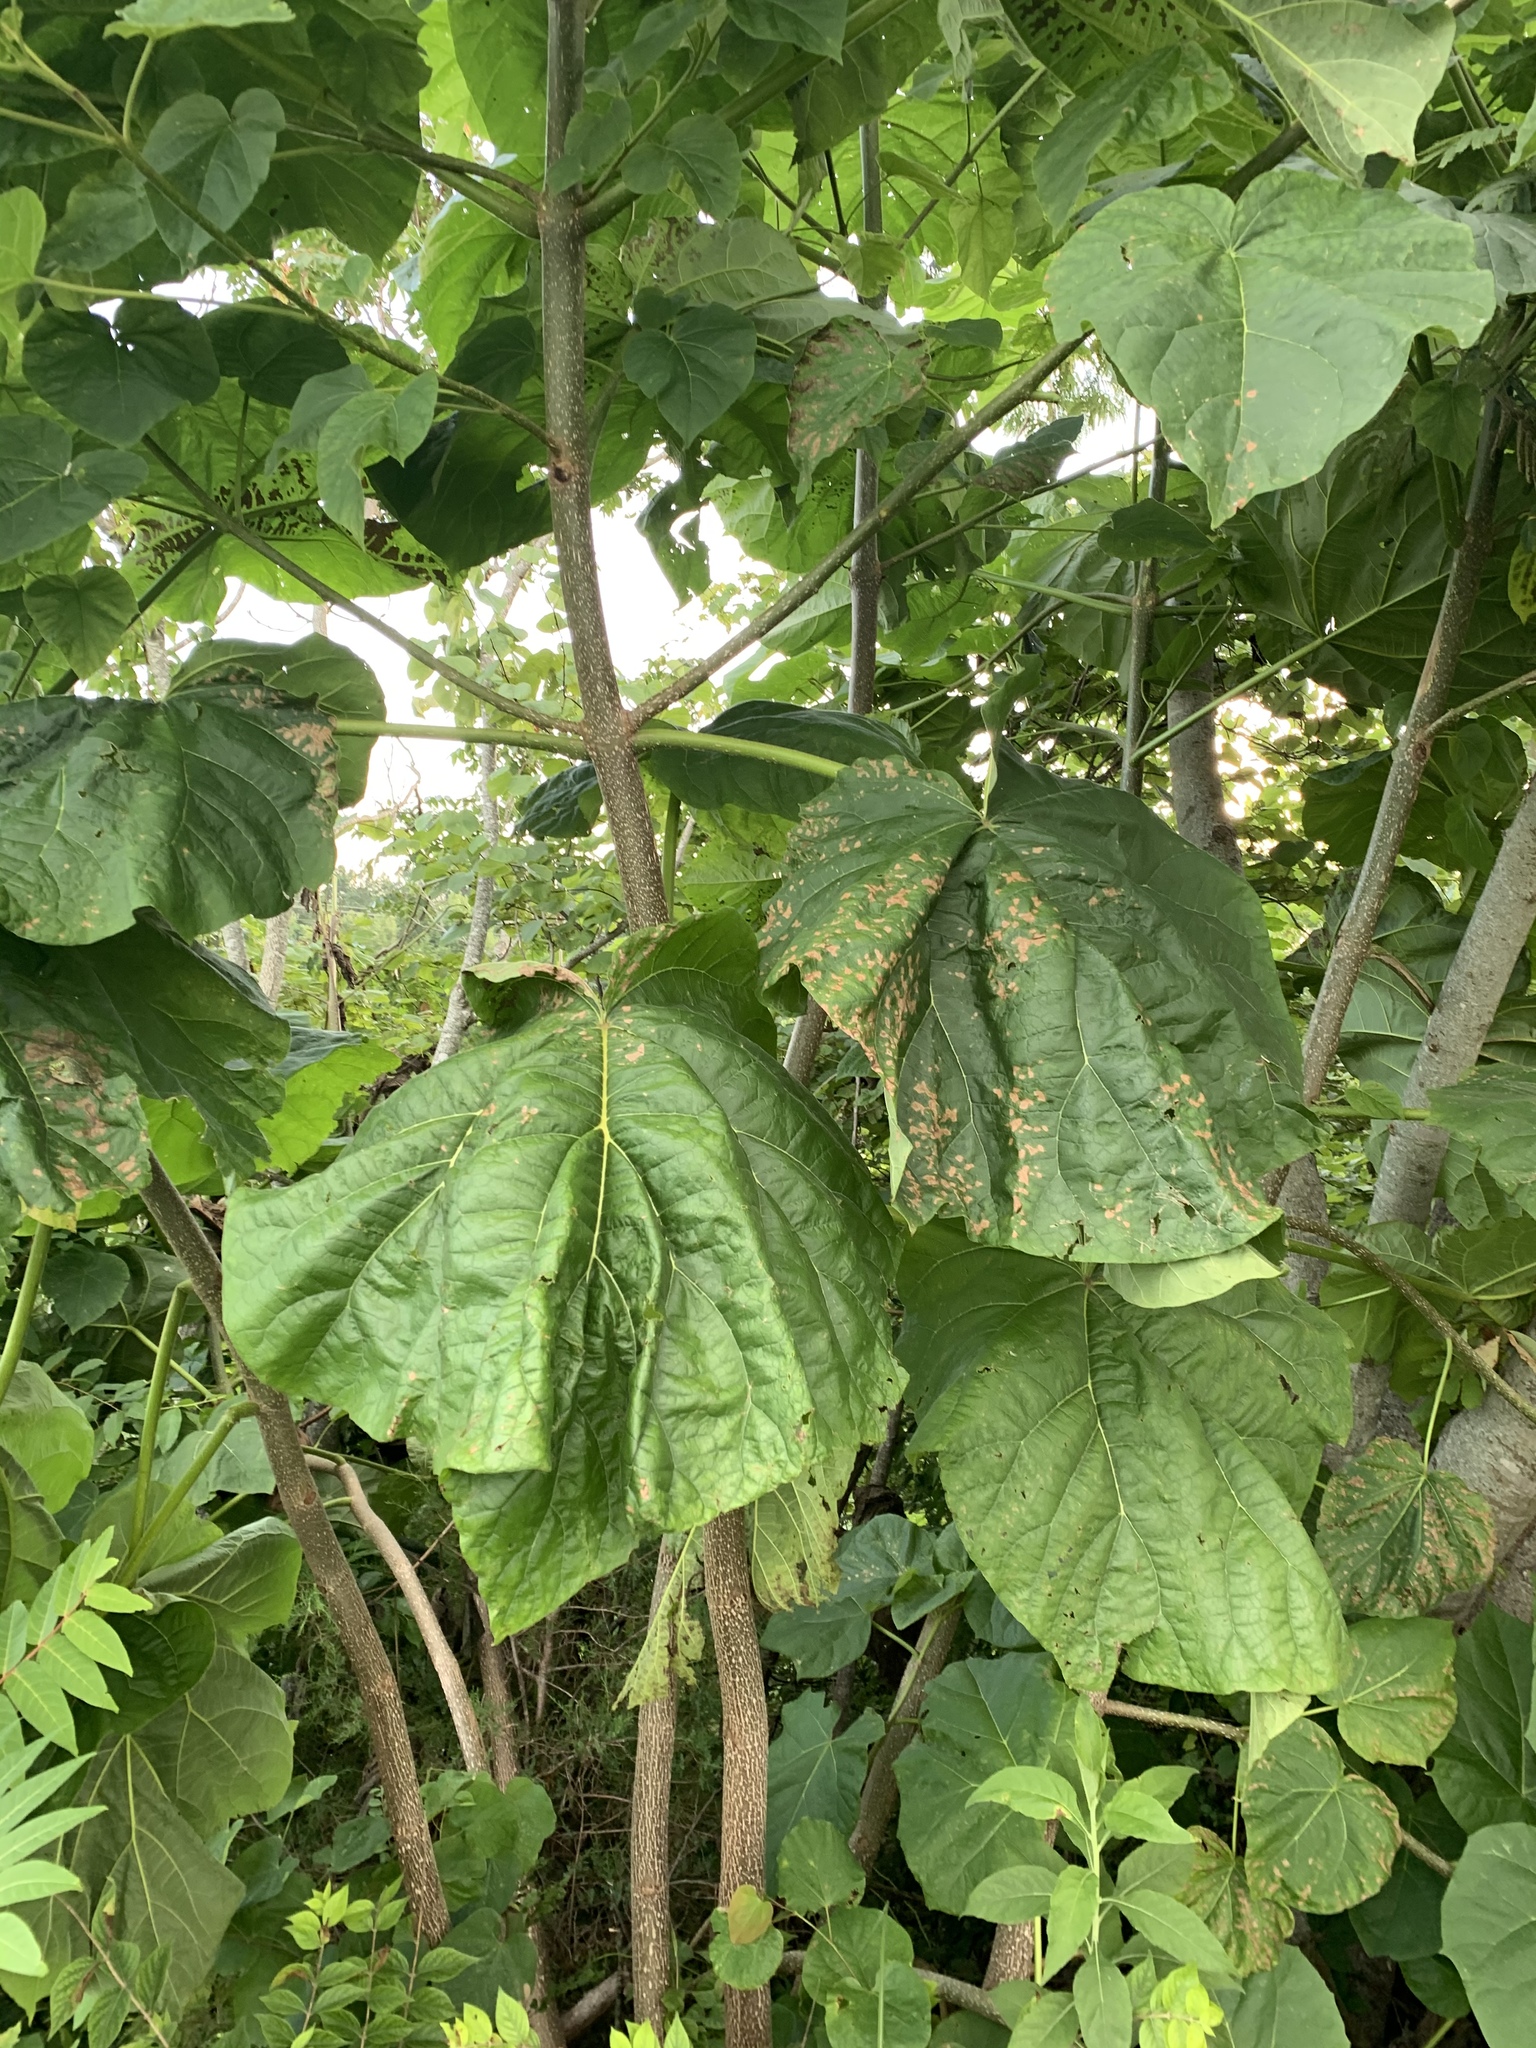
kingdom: Plantae
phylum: Tracheophyta
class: Magnoliopsida
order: Lamiales
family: Paulowniaceae
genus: Paulownia
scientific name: Paulownia tomentosa
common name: Foxglove-tree
